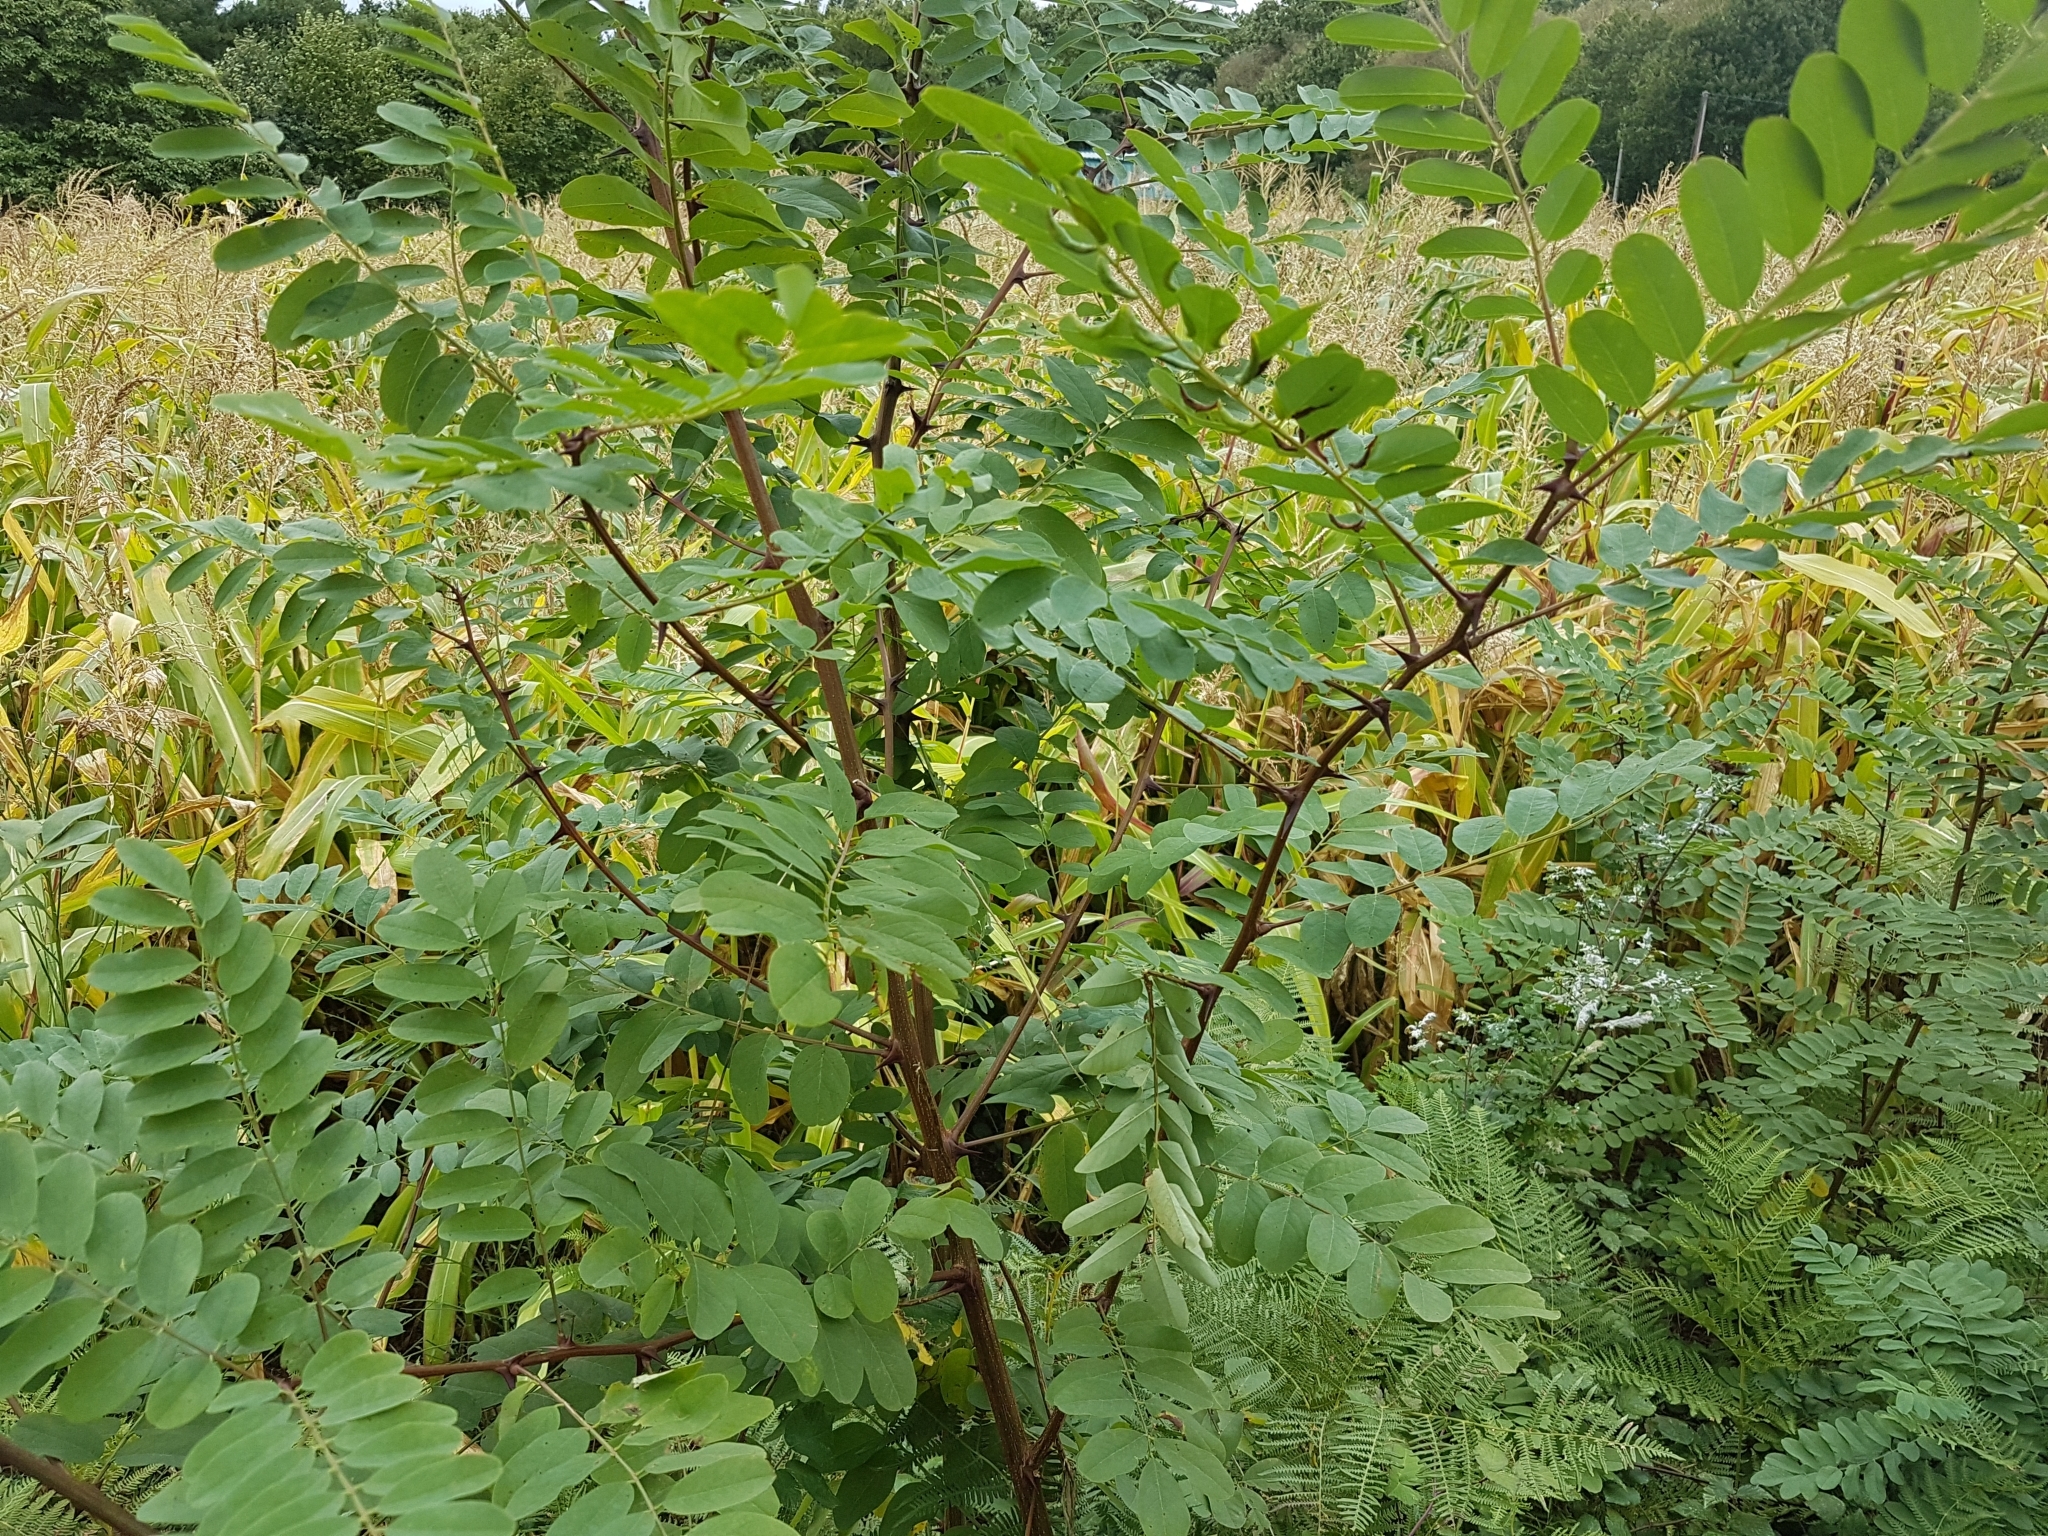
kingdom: Plantae
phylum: Tracheophyta
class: Magnoliopsida
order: Fabales
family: Fabaceae
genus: Robinia
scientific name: Robinia pseudoacacia
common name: Black locust
